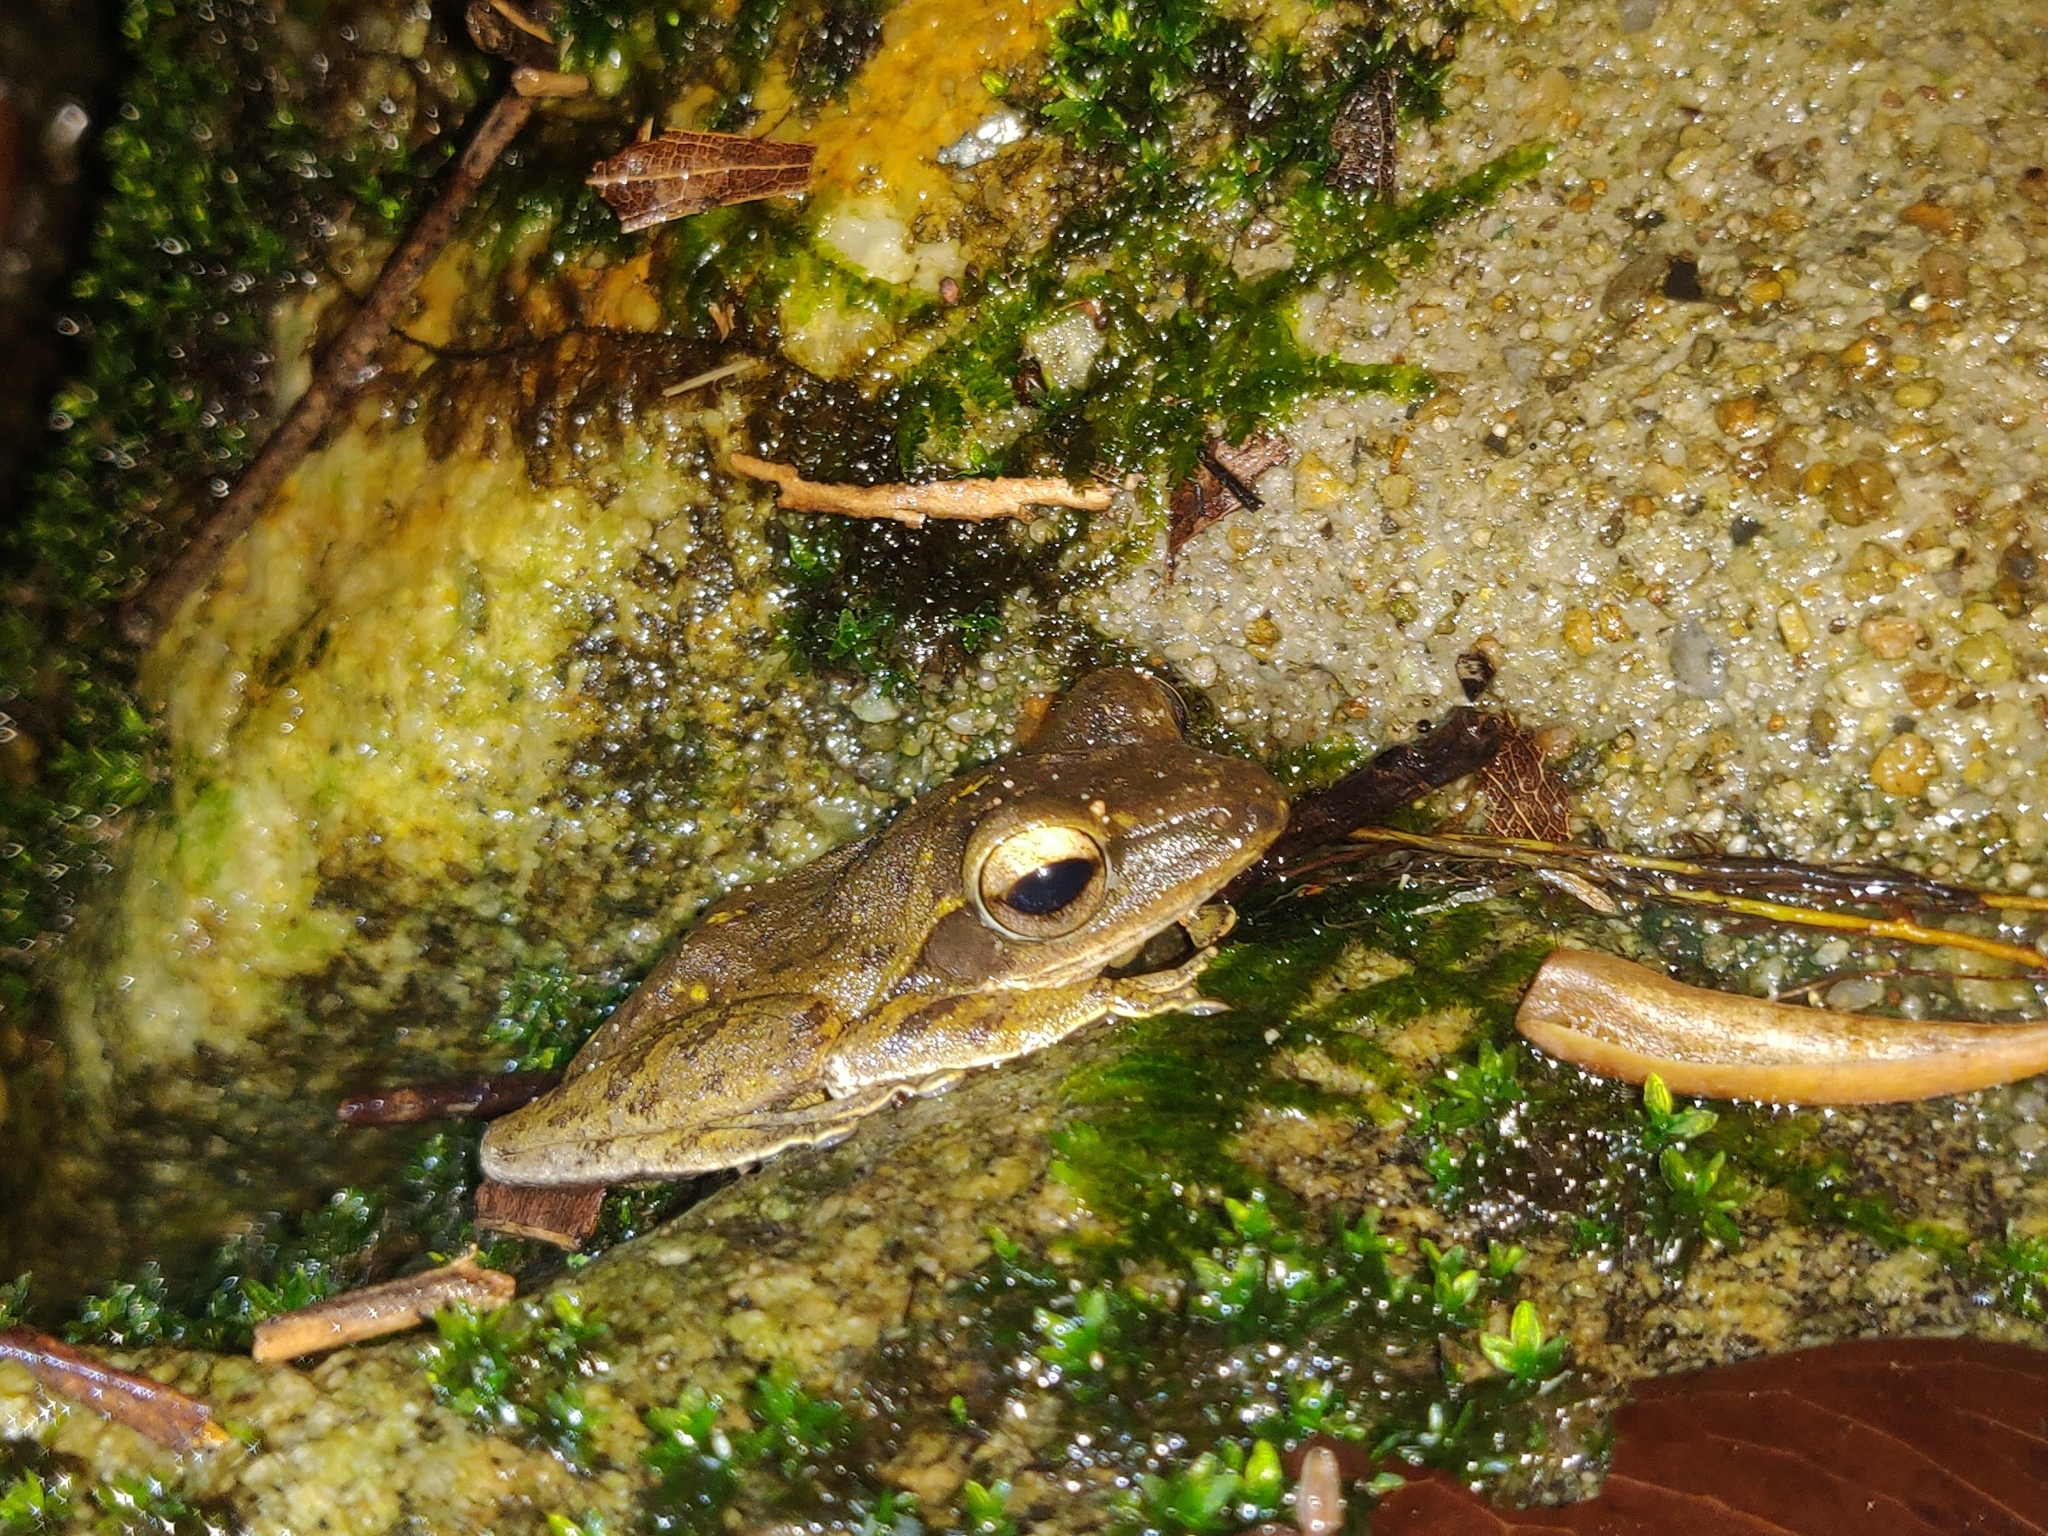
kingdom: Animalia
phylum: Chordata
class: Amphibia
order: Anura
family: Rhacophoridae
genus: Polypedates
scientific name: Polypedates leucomystax
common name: Common tree frog/four-lined tree frog
